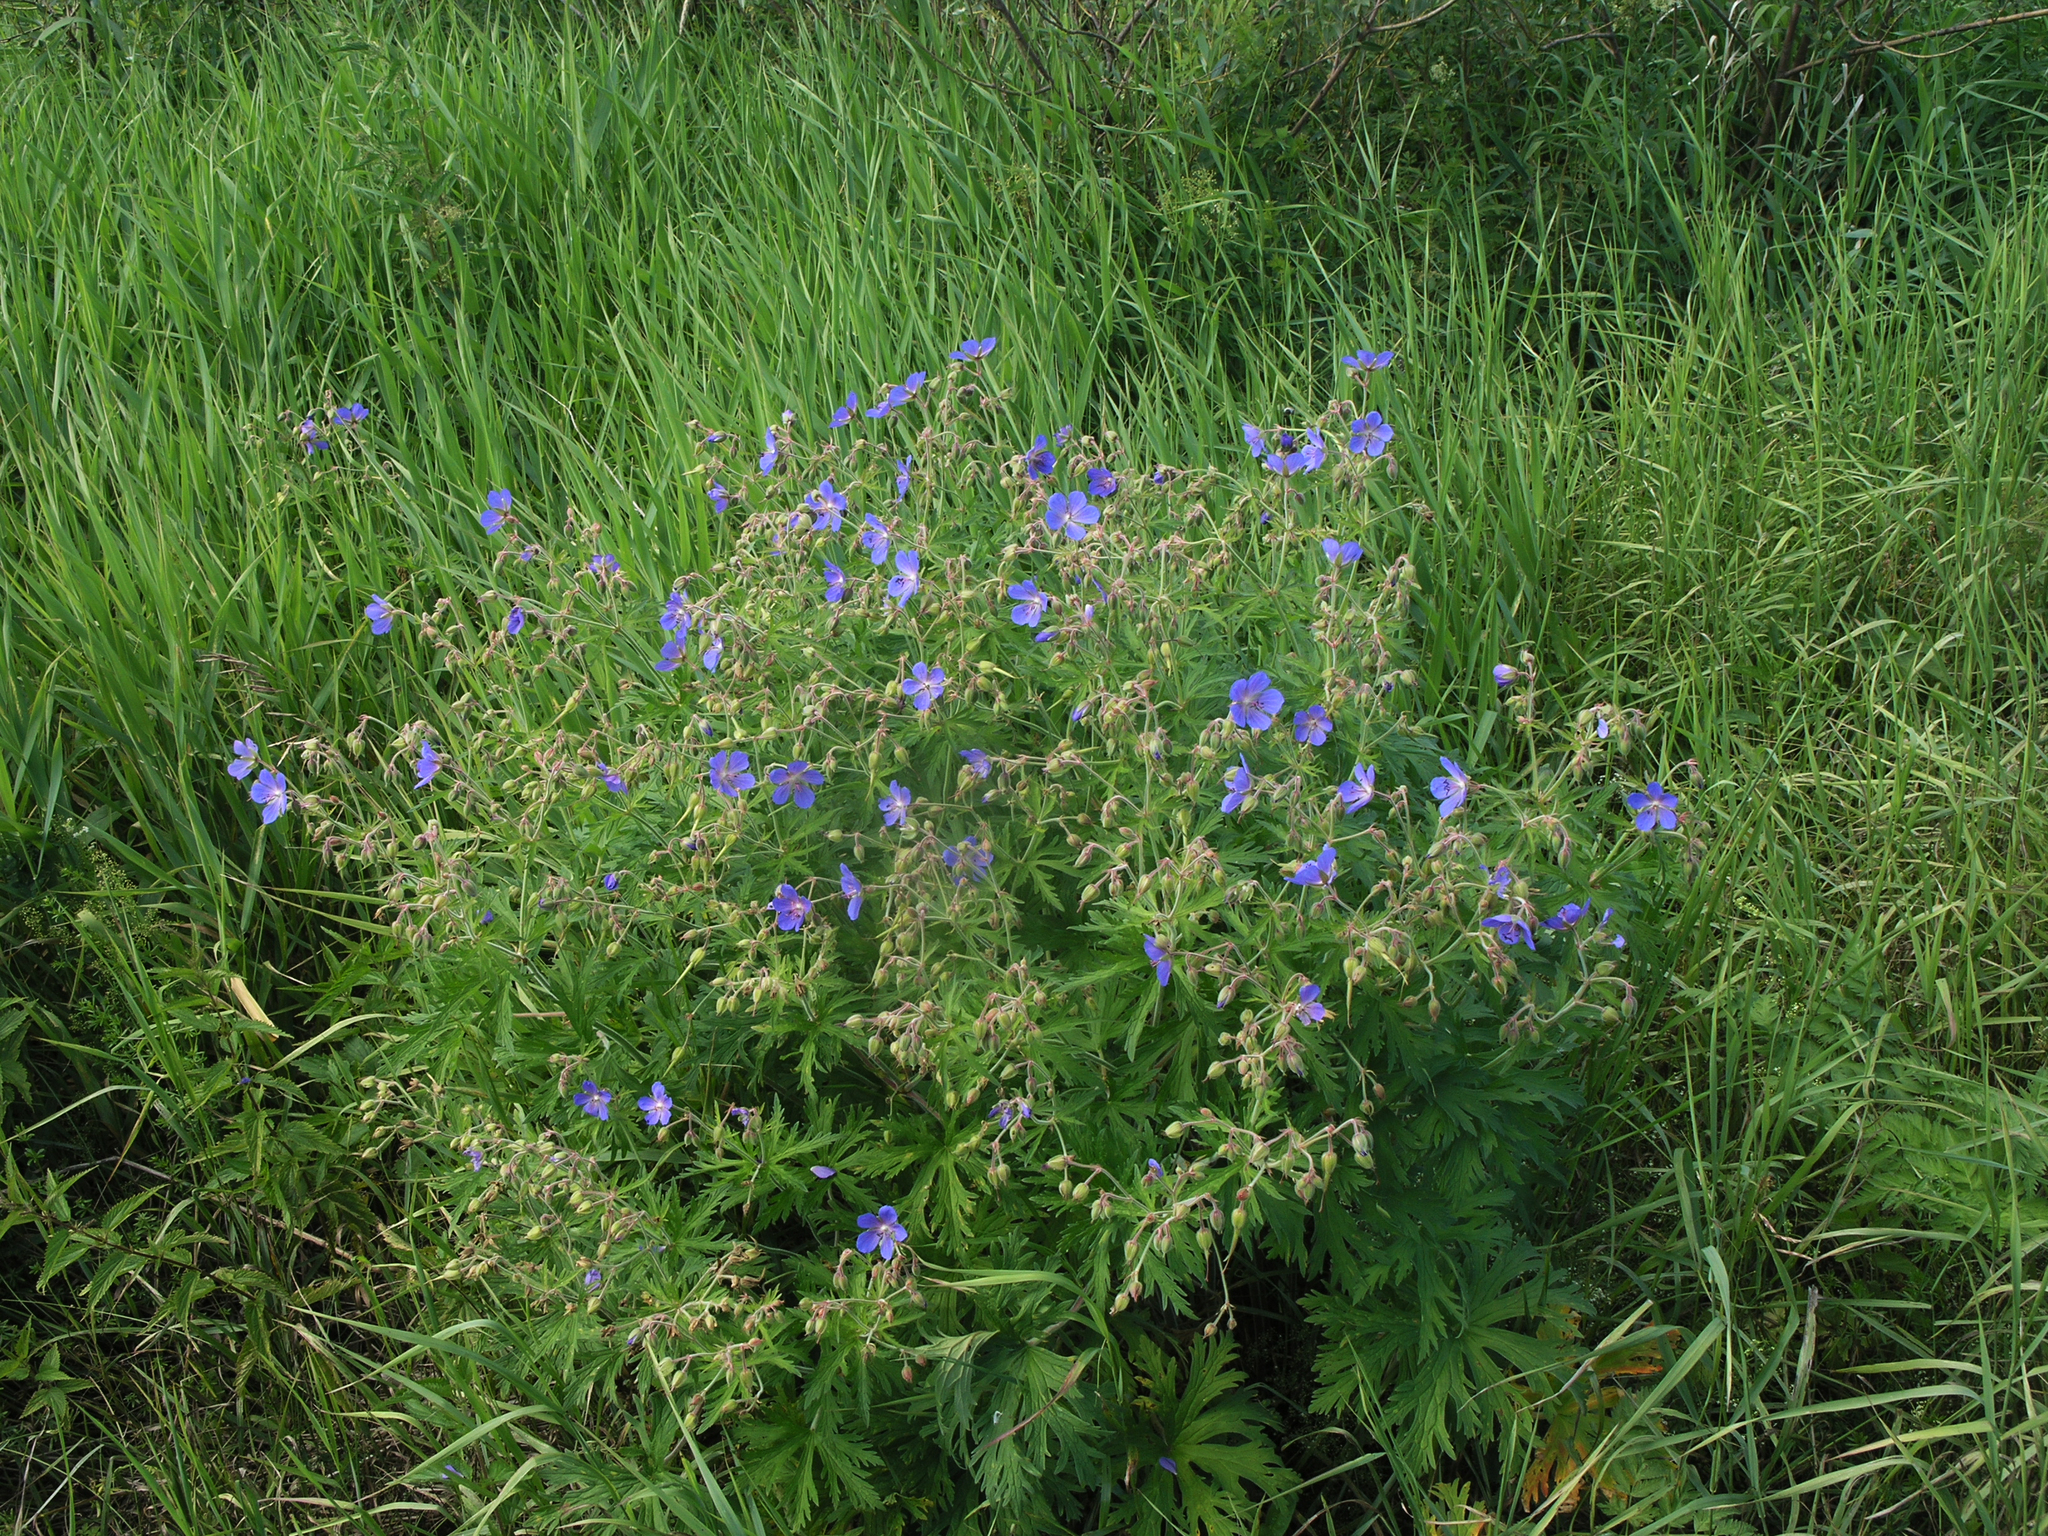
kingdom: Plantae
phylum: Tracheophyta
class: Magnoliopsida
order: Geraniales
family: Geraniaceae
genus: Geranium
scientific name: Geranium pratense
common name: Meadow crane's-bill
